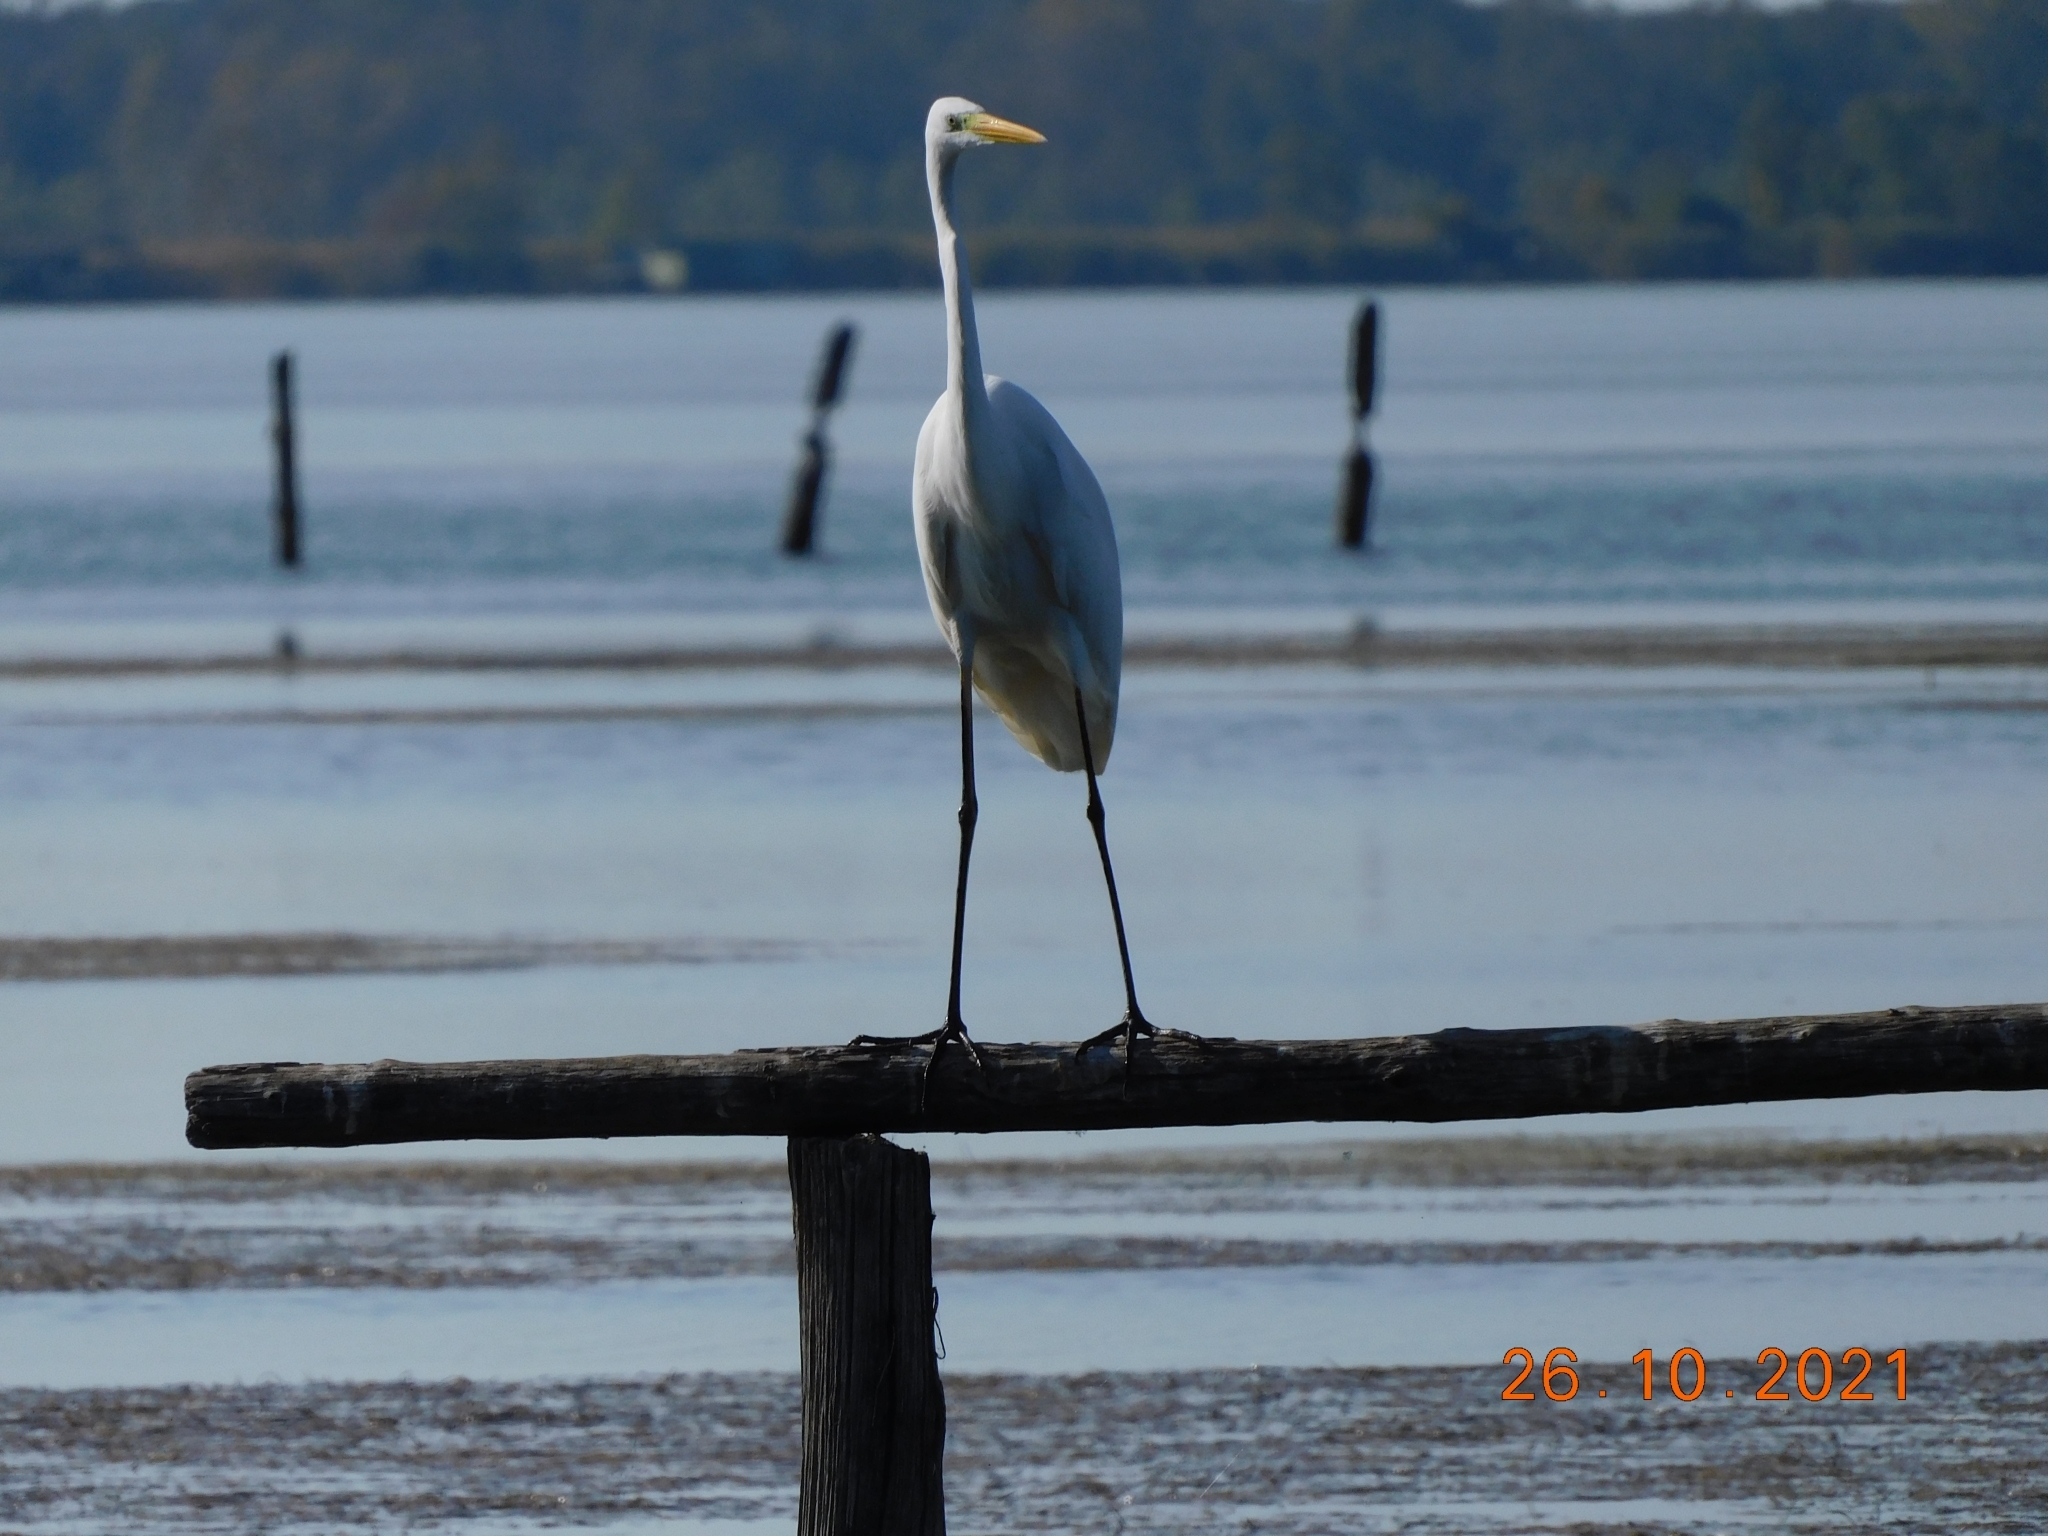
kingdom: Animalia
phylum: Chordata
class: Aves
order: Pelecaniformes
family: Ardeidae
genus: Ardea
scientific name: Ardea alba
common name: Great egret
